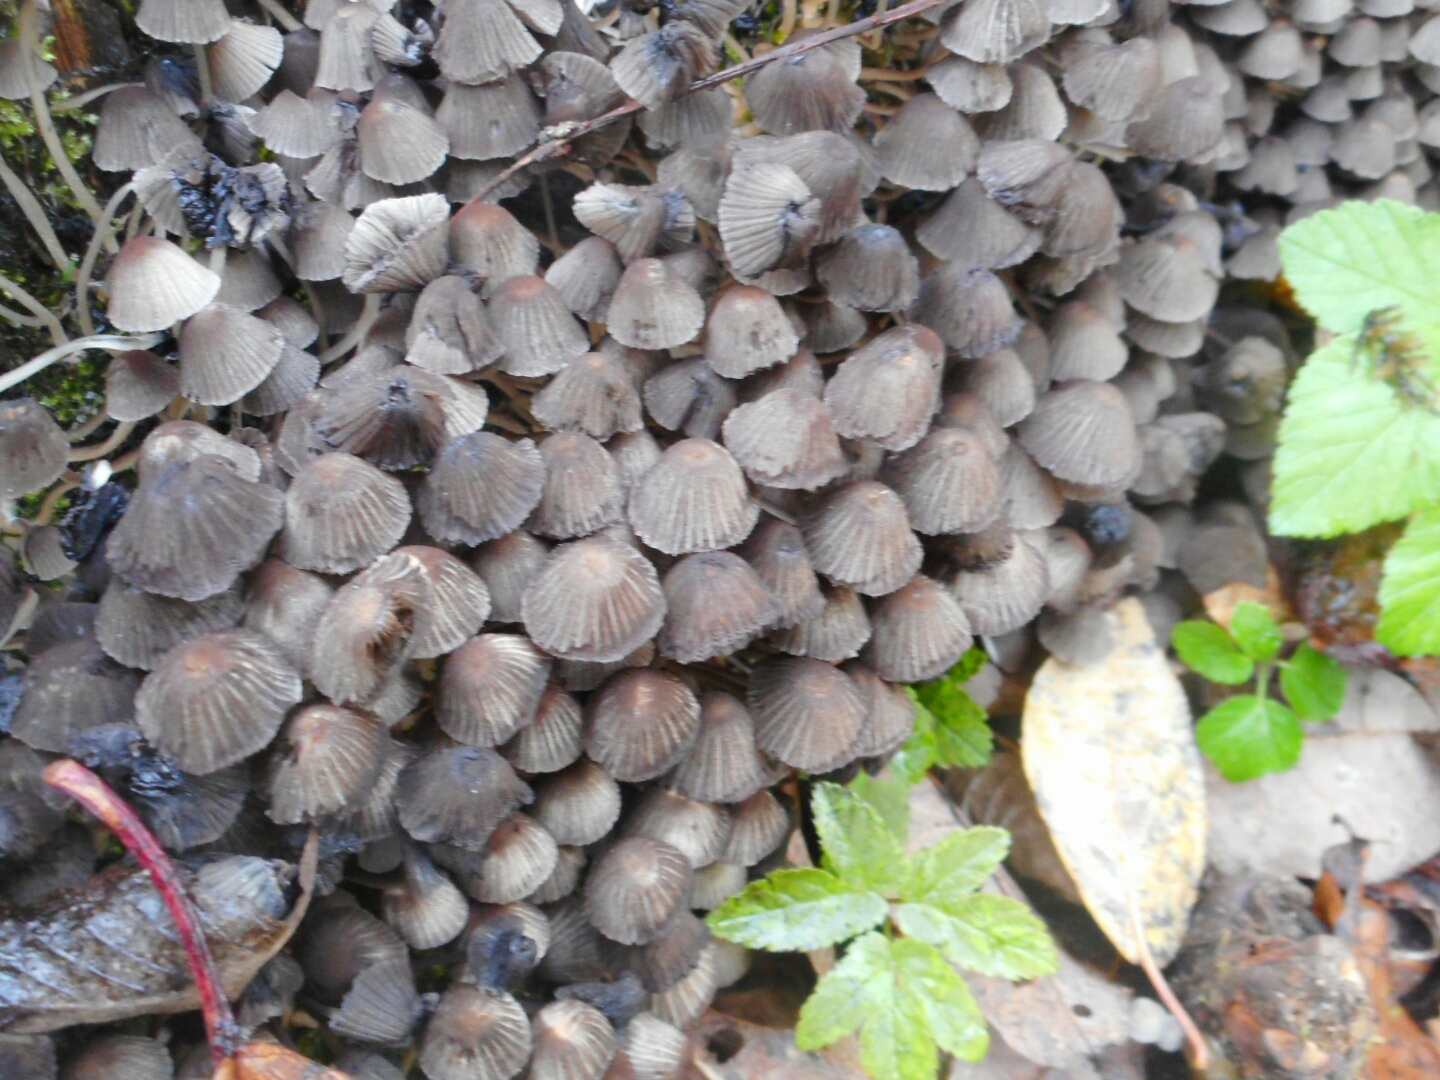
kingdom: Fungi
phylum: Basidiomycota
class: Agaricomycetes
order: Agaricales
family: Psathyrellaceae
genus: Coprinellus
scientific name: Coprinellus disseminatus
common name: Fairies' bonnets
